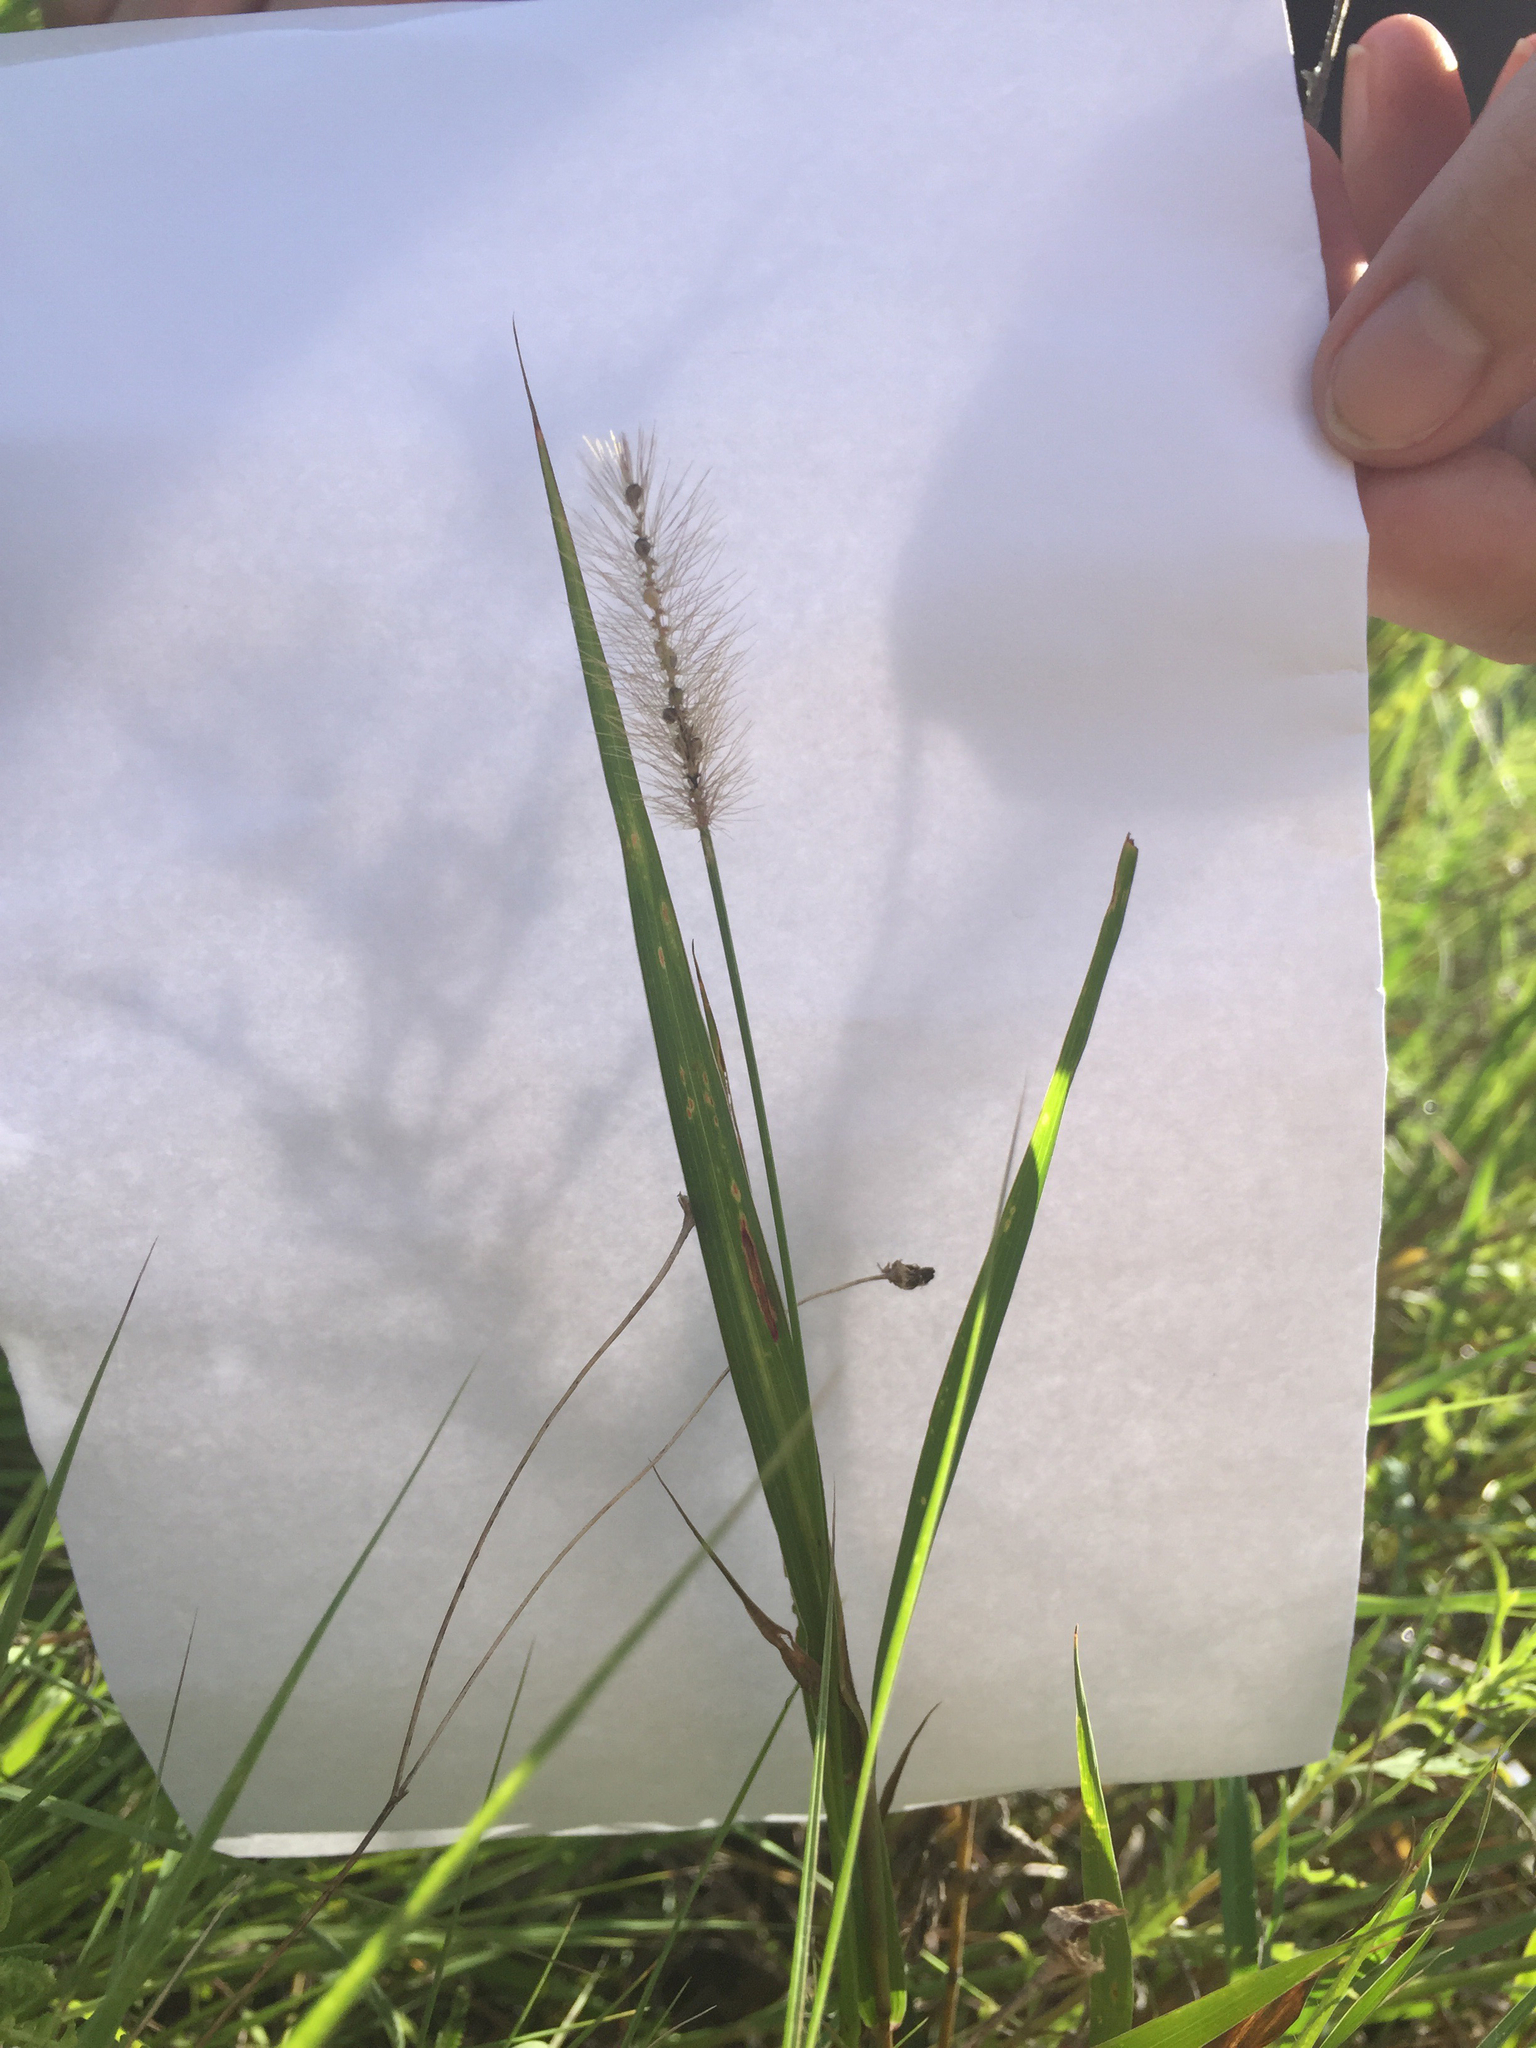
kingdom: Plantae
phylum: Tracheophyta
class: Liliopsida
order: Poales
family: Poaceae
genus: Setaria
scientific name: Setaria parviflora
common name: Knotroot bristle-grass
